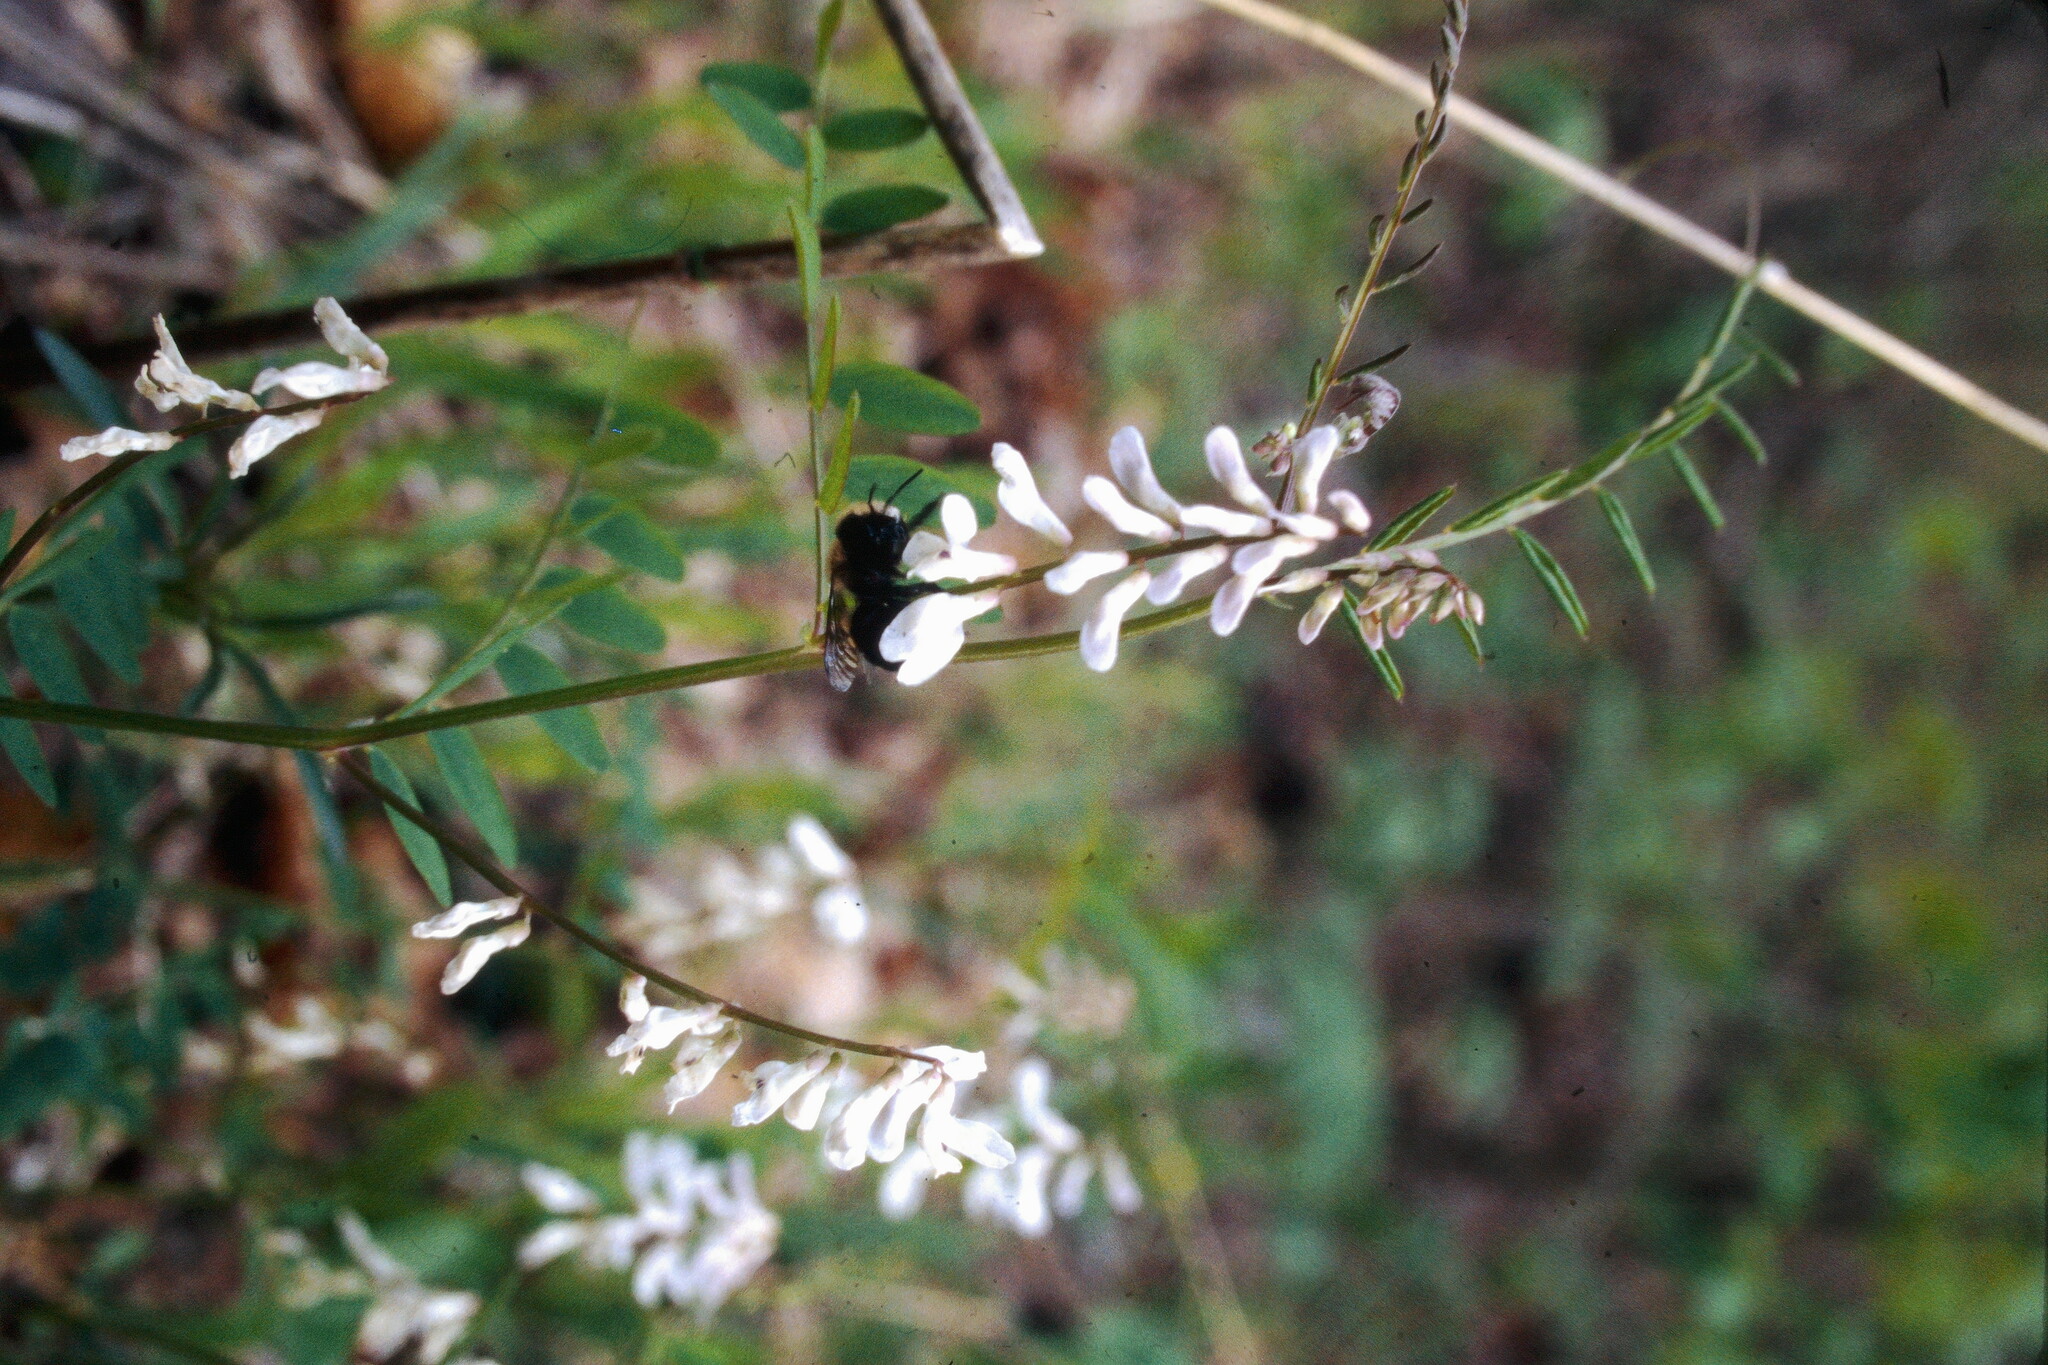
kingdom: Plantae
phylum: Tracheophyta
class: Magnoliopsida
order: Fabales
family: Fabaceae
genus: Vicia
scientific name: Vicia caroliniana
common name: Carolina vetch
